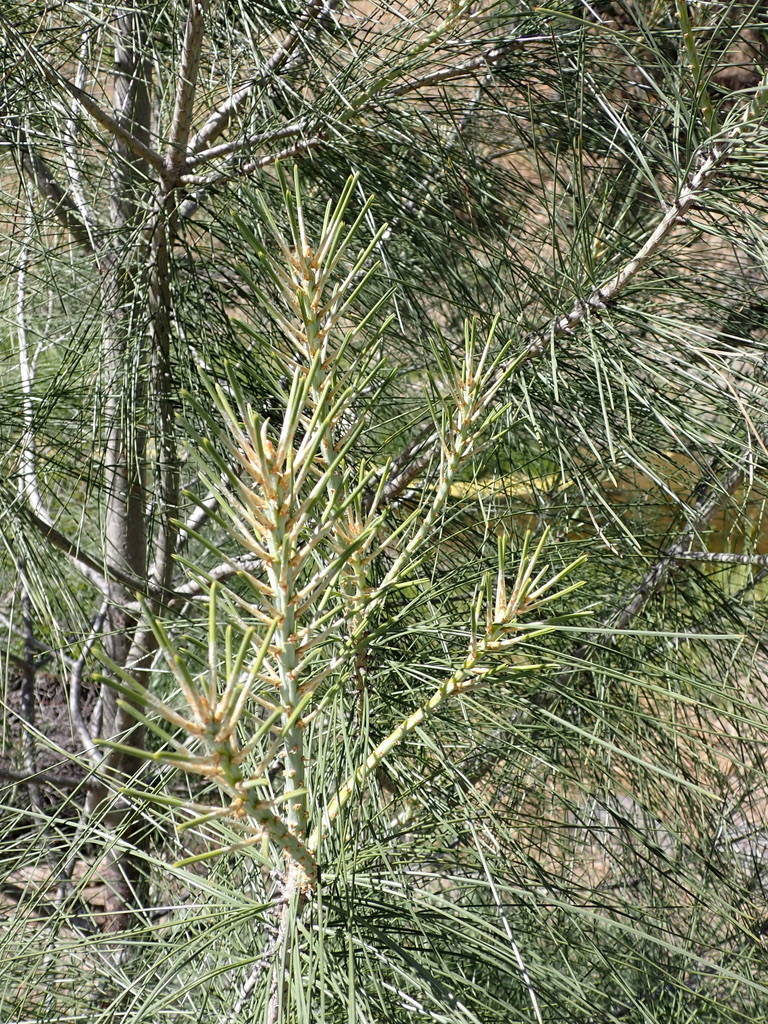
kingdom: Plantae
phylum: Tracheophyta
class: Pinopsida
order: Pinales
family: Pinaceae
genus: Pinus
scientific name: Pinus sabiniana
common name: Bull pine
